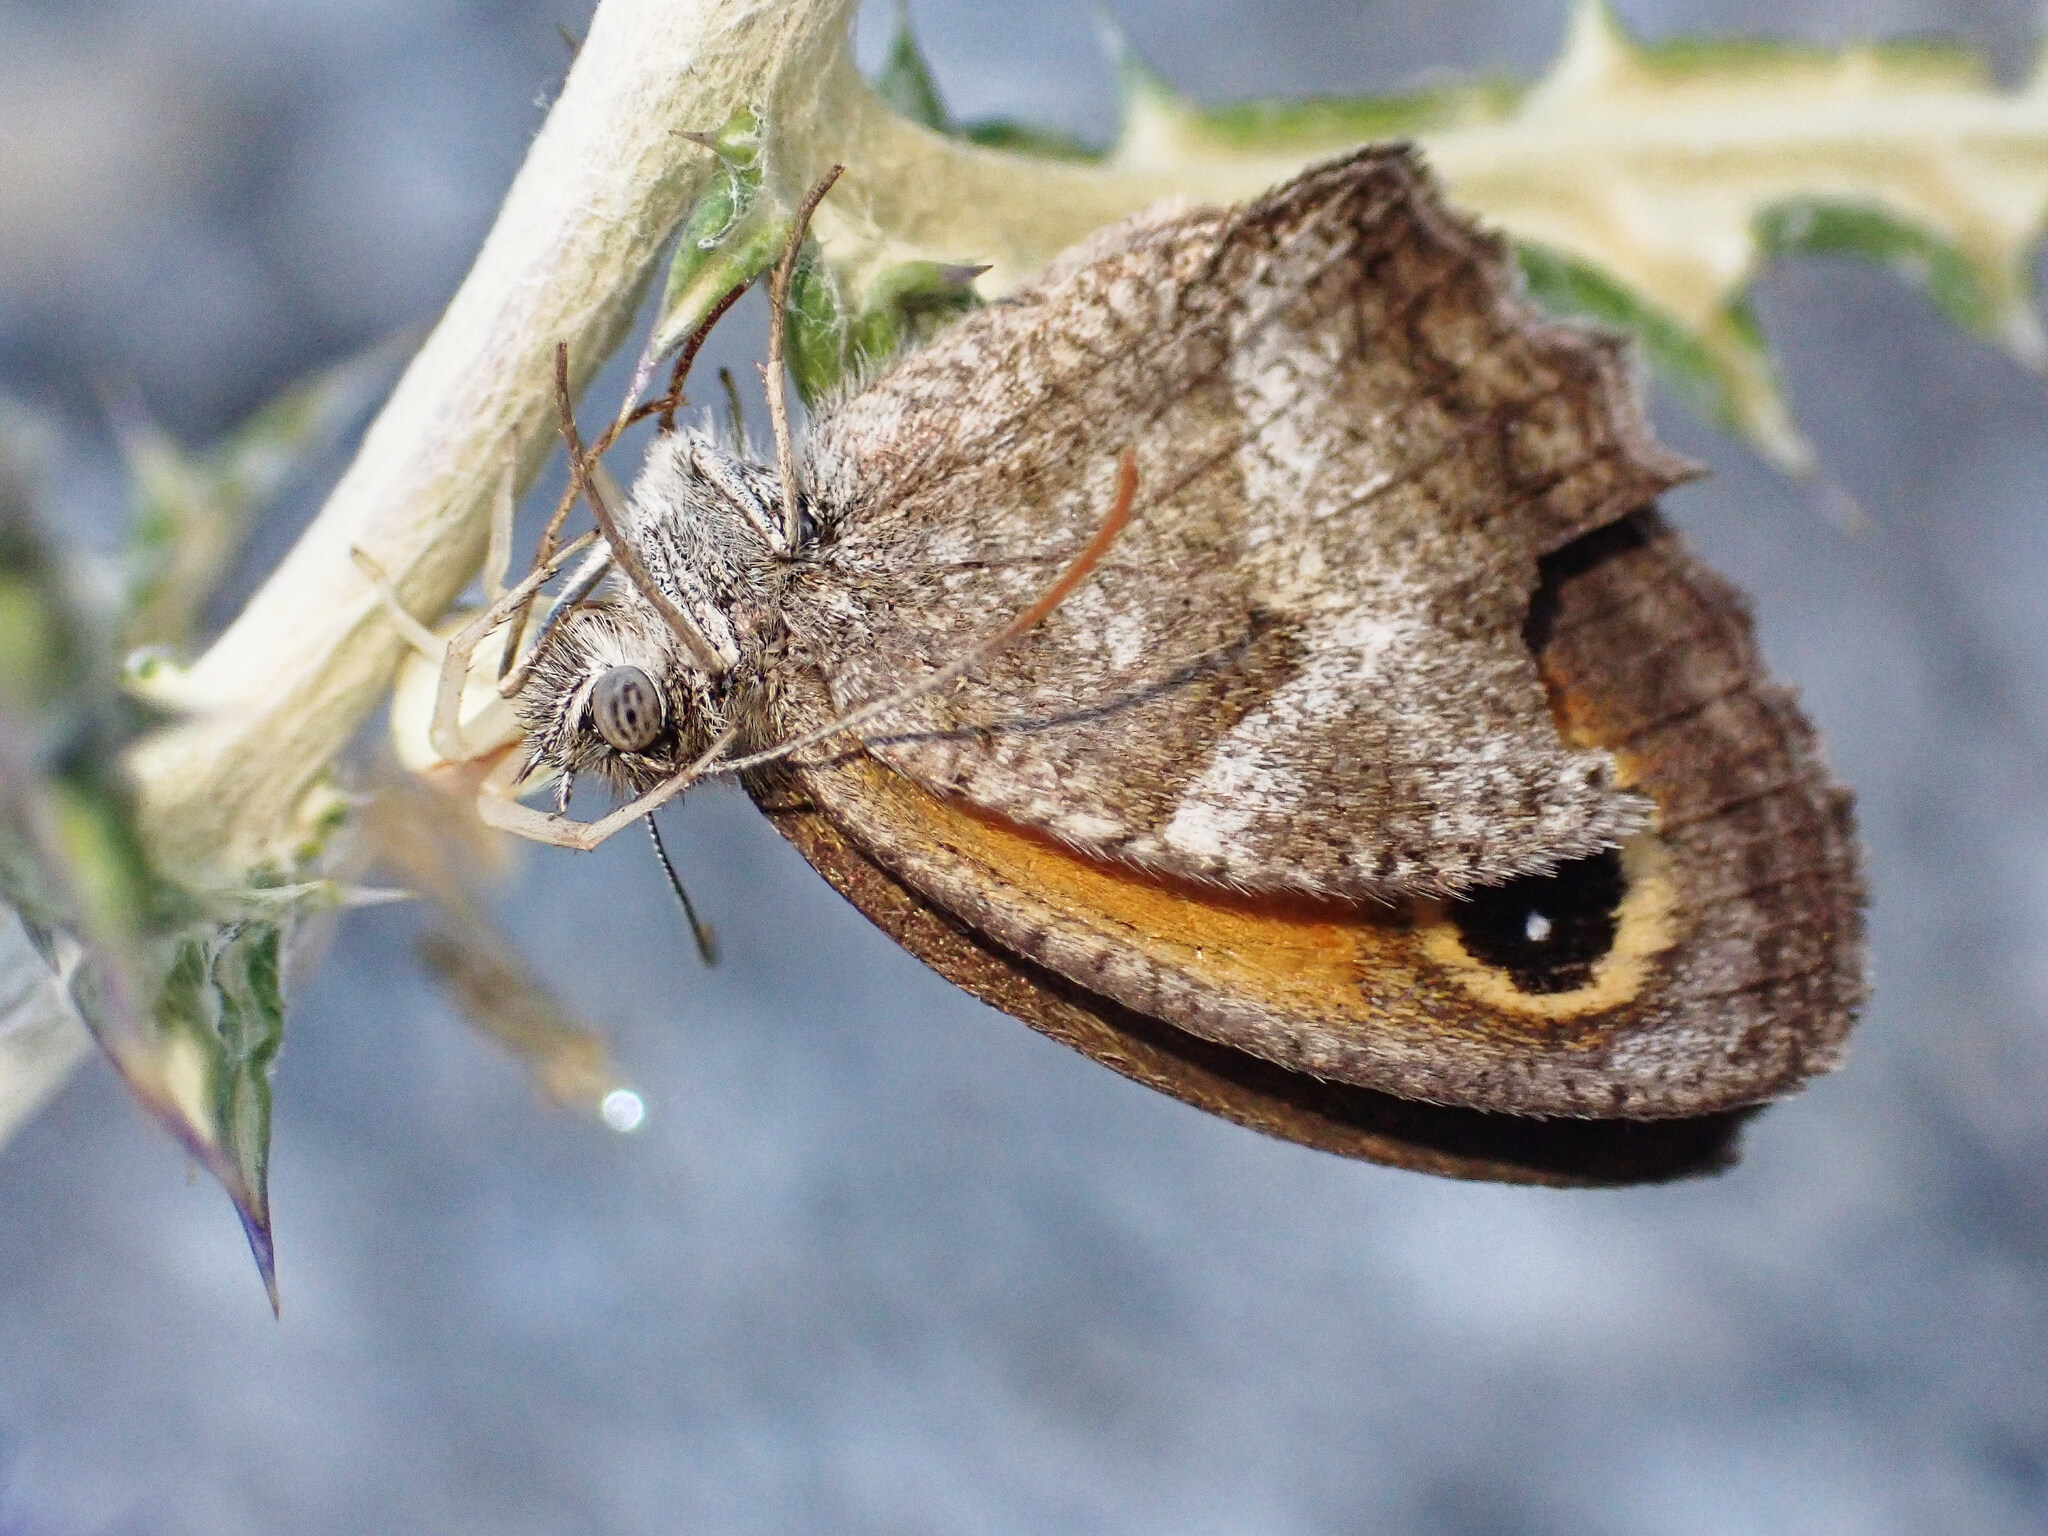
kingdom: Animalia
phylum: Arthropoda
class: Insecta
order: Lepidoptera
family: Nymphalidae
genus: Pyronia
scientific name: Pyronia cecilia
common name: Southern gatekeeper
